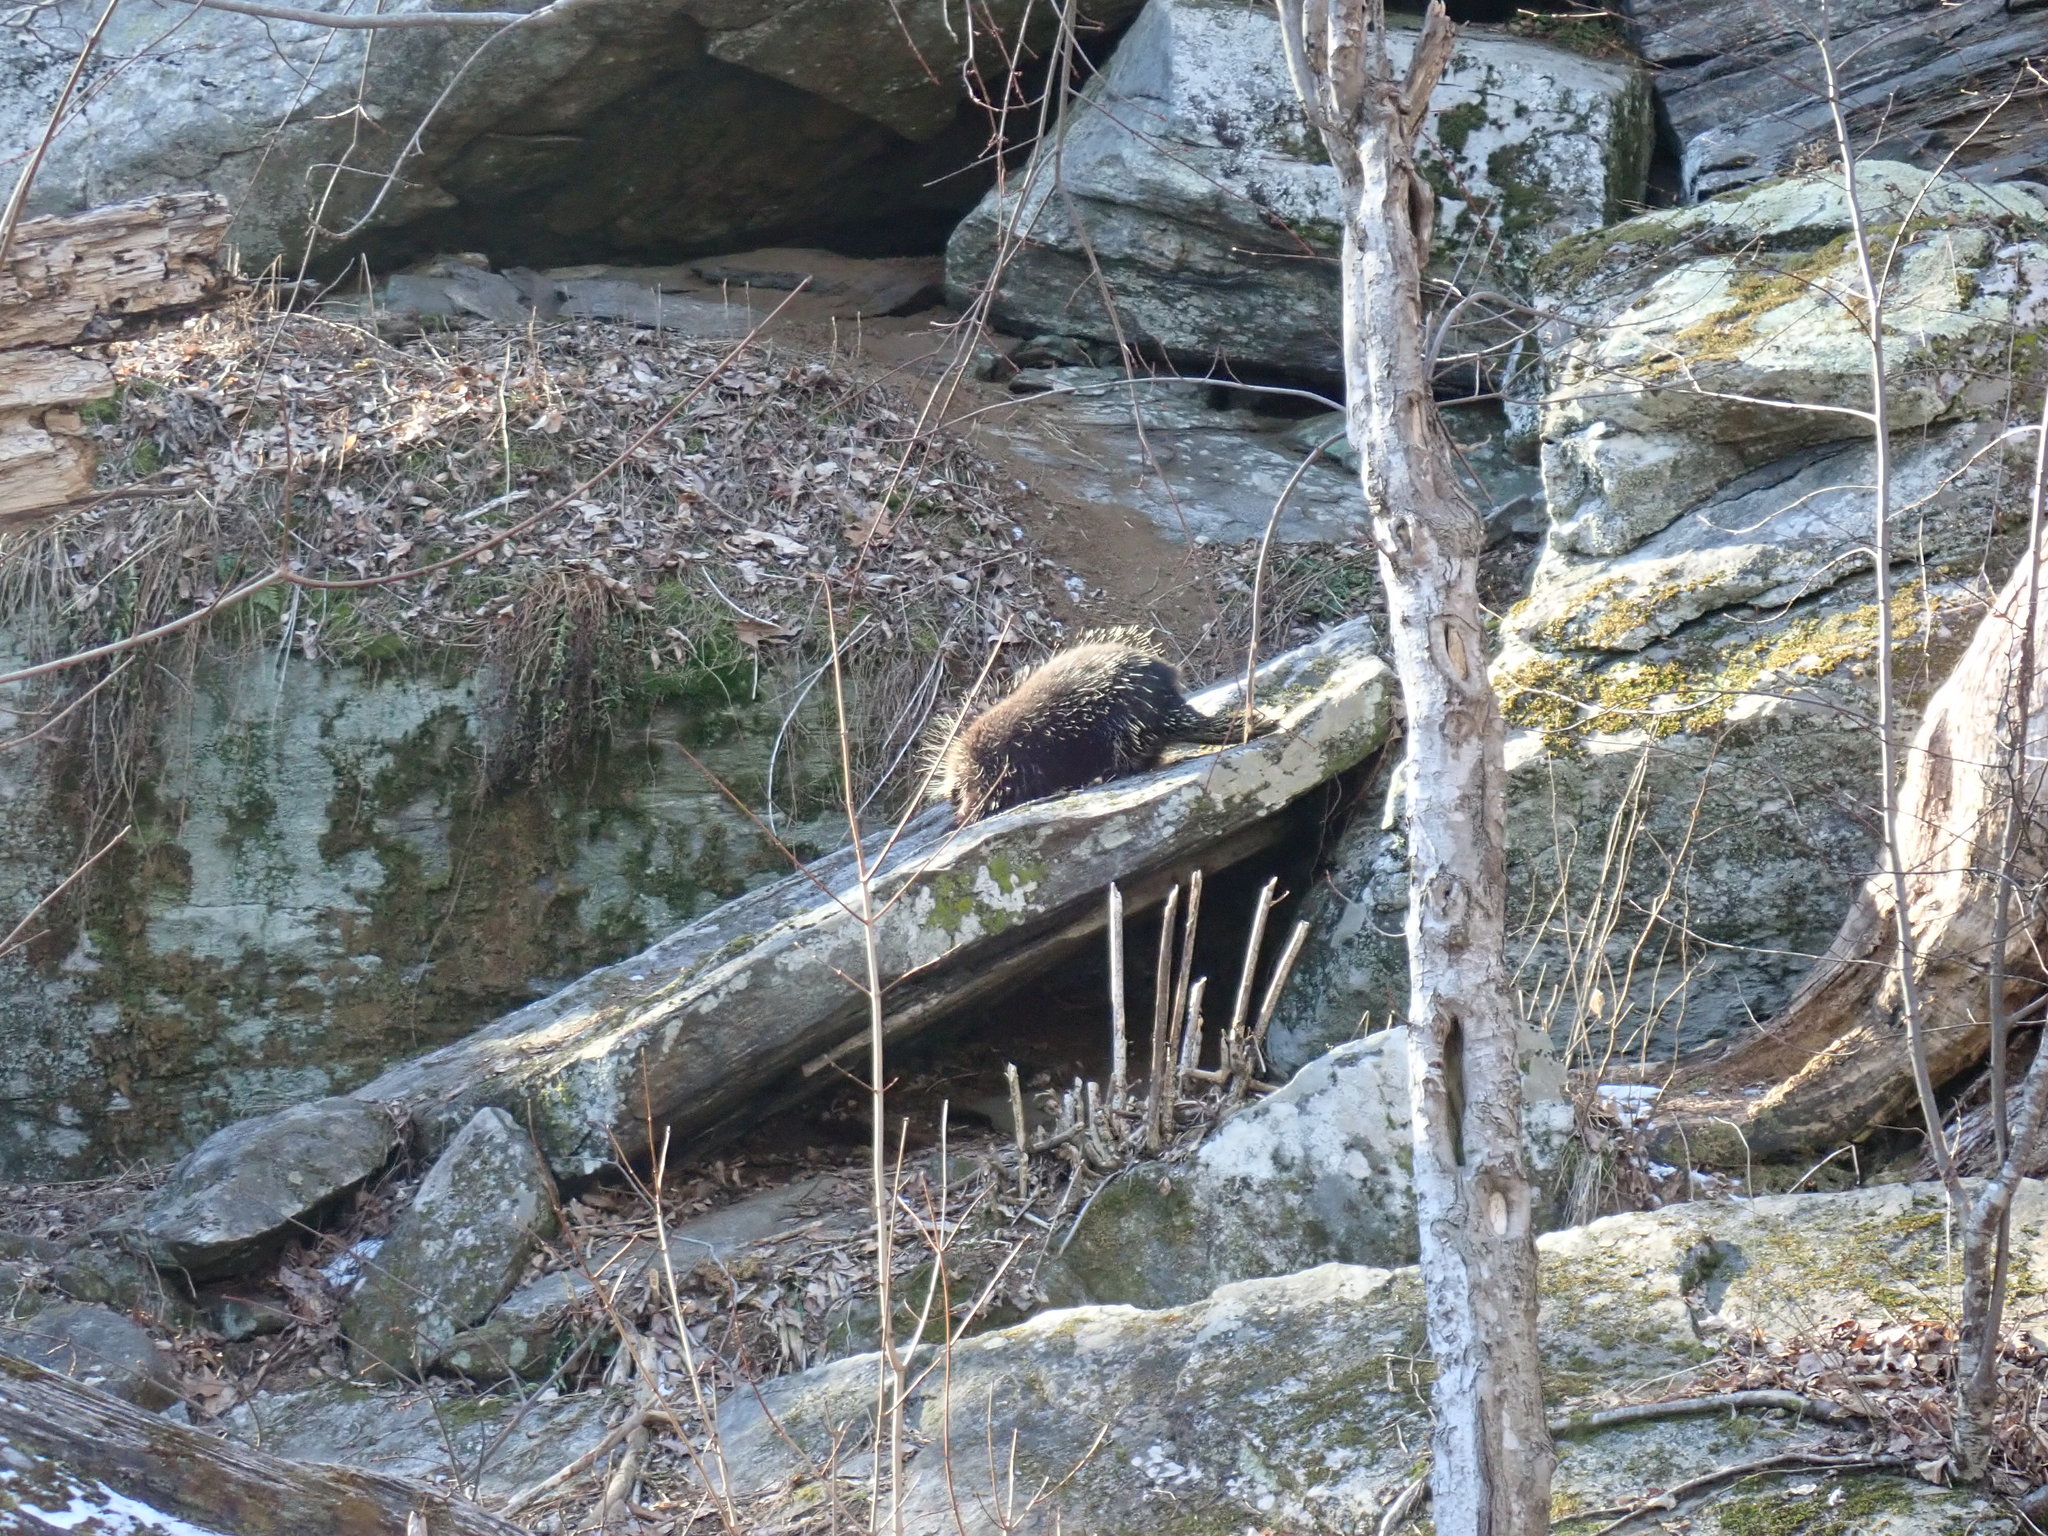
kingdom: Animalia
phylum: Chordata
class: Mammalia
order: Rodentia
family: Erethizontidae
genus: Erethizon
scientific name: Erethizon dorsatus
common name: North american porcupine
